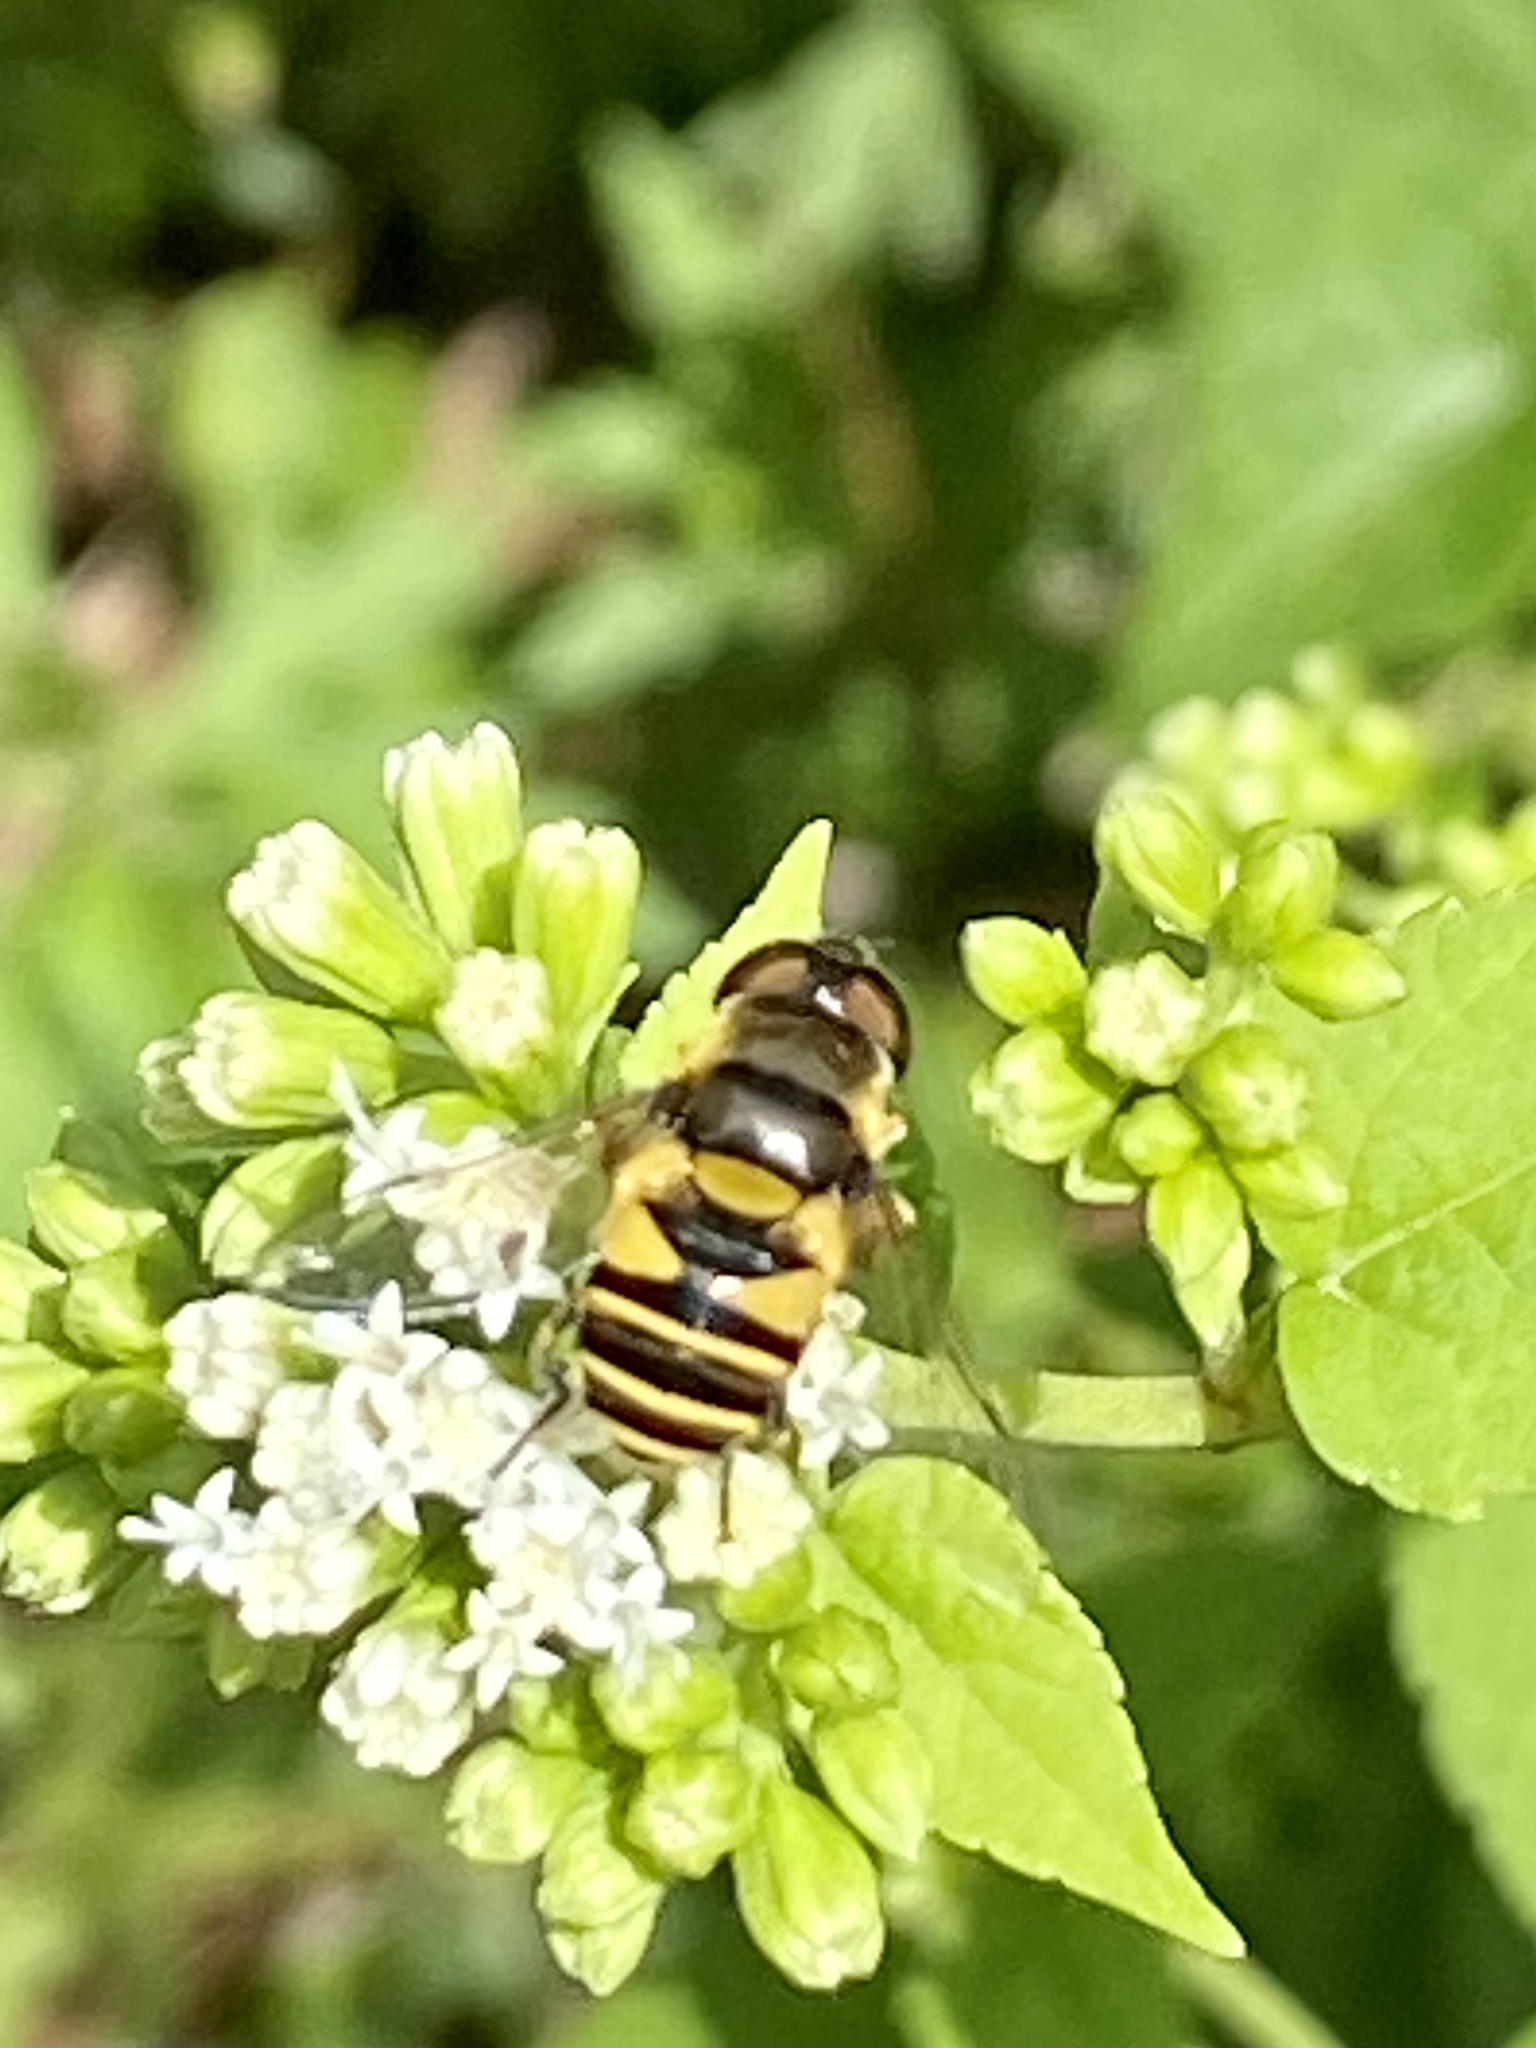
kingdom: Animalia
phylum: Arthropoda
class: Insecta
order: Diptera
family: Syrphidae
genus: Eristalis
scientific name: Eristalis transversa
